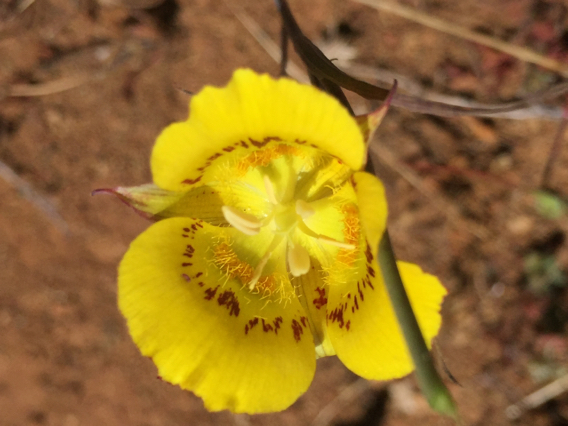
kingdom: Plantae
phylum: Tracheophyta
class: Liliopsida
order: Liliales
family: Liliaceae
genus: Calochortus
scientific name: Calochortus luteus
